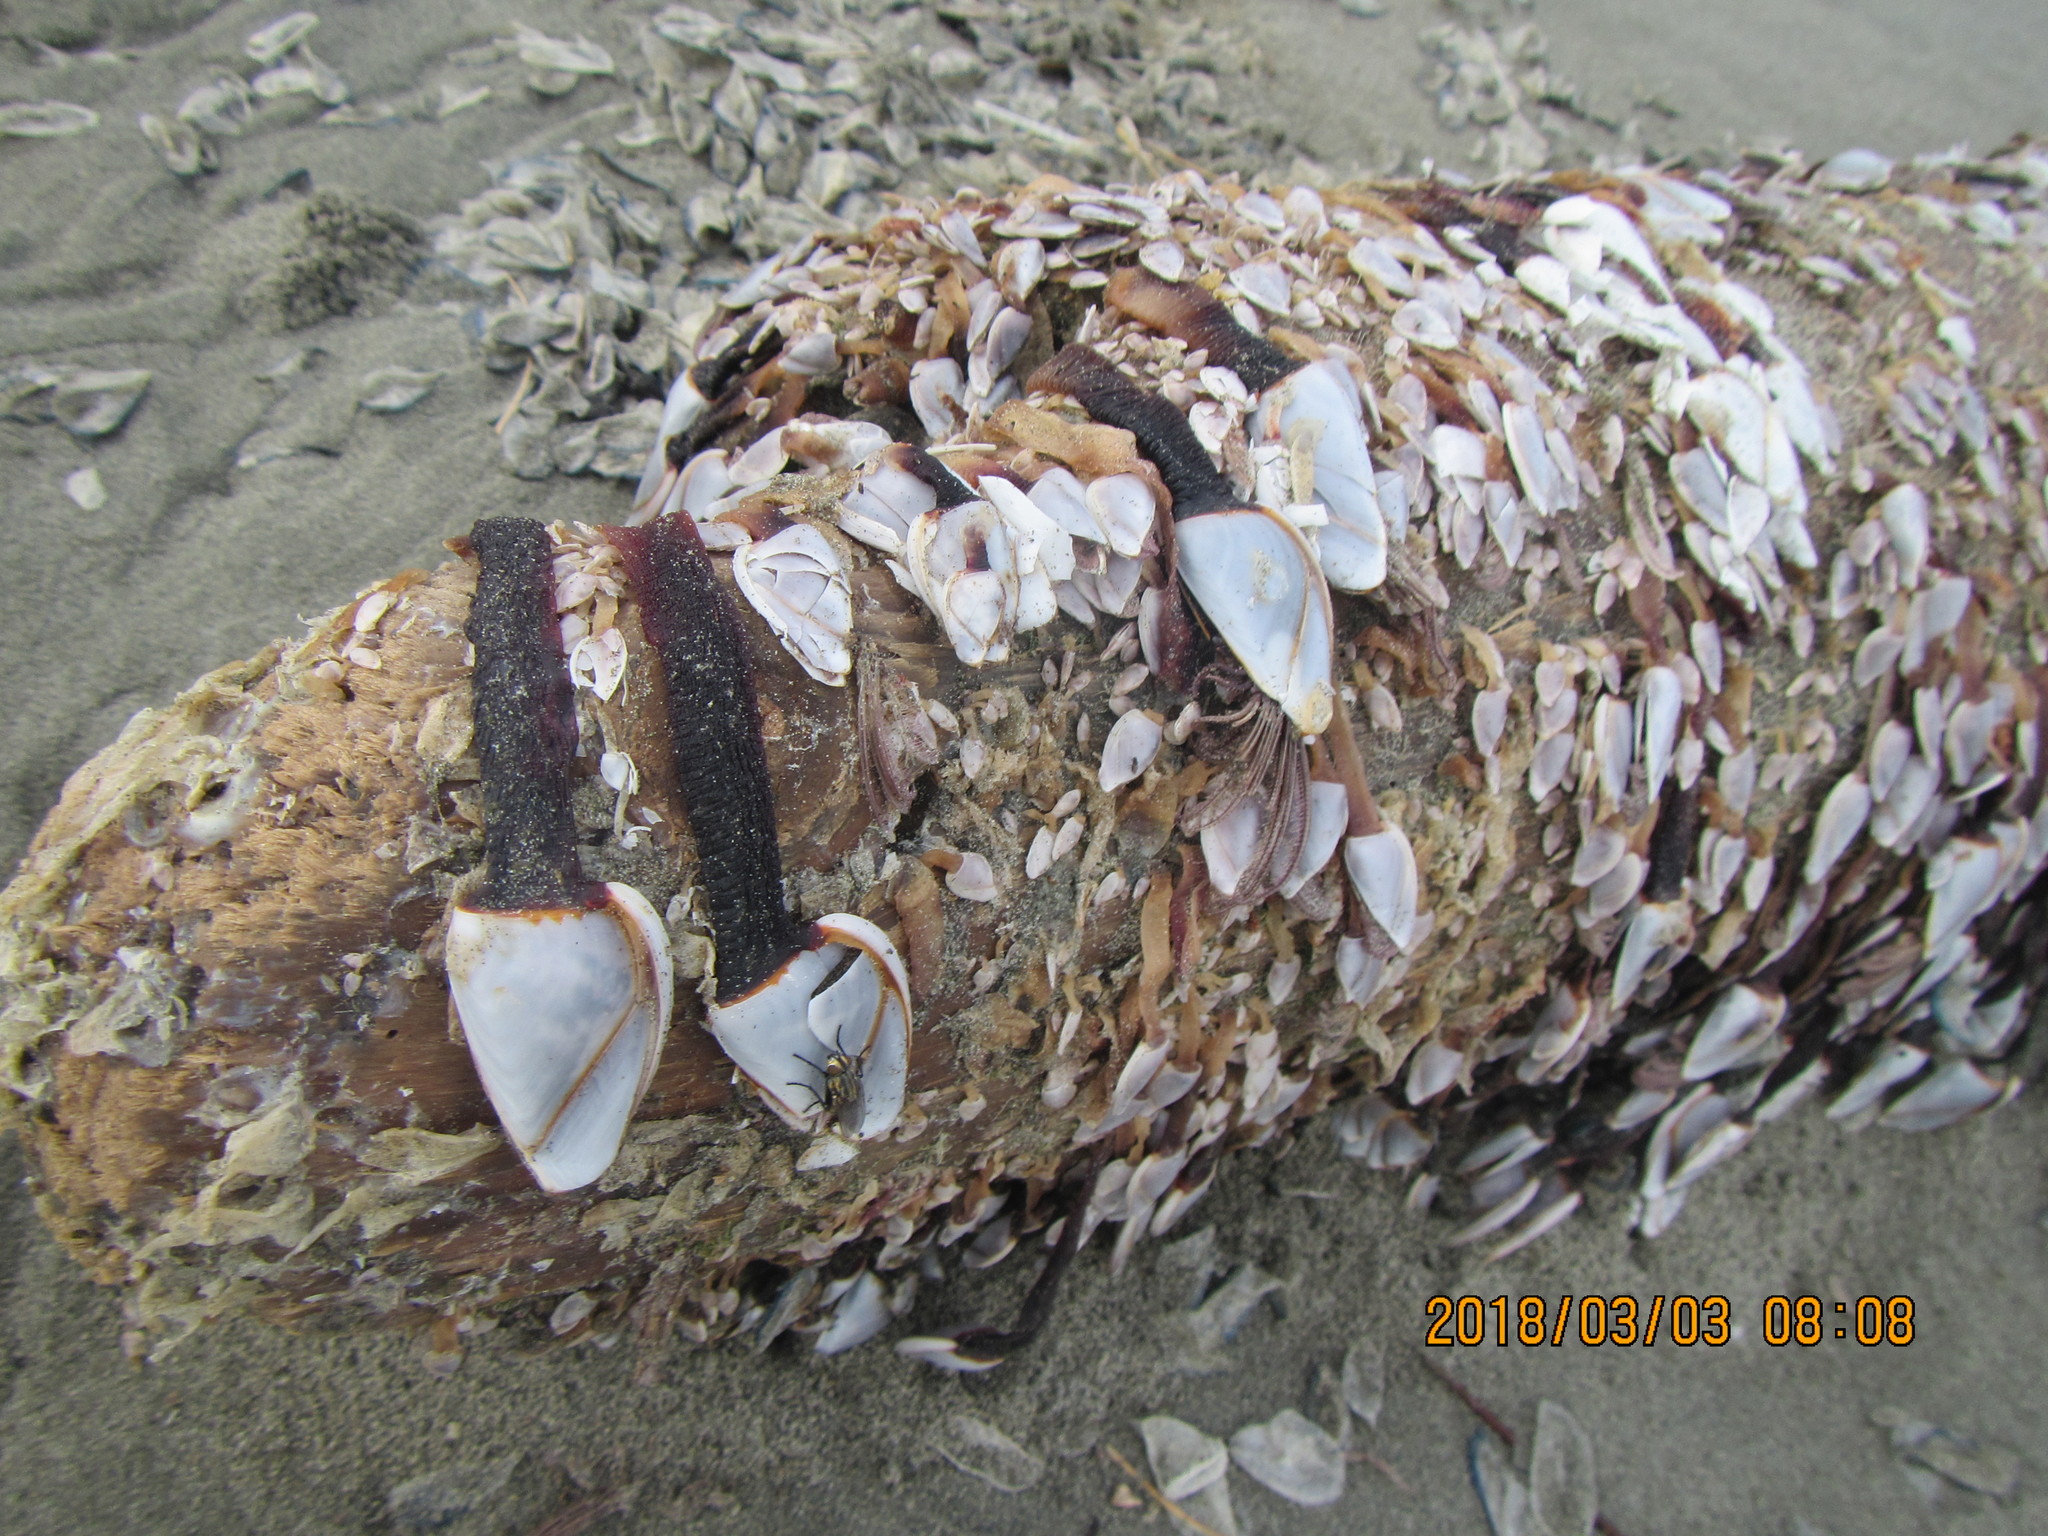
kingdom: Animalia
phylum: Arthropoda
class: Maxillopoda
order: Pedunculata
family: Lepadidae
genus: Lepas
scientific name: Lepas anatifera
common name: Common goose barnacle
